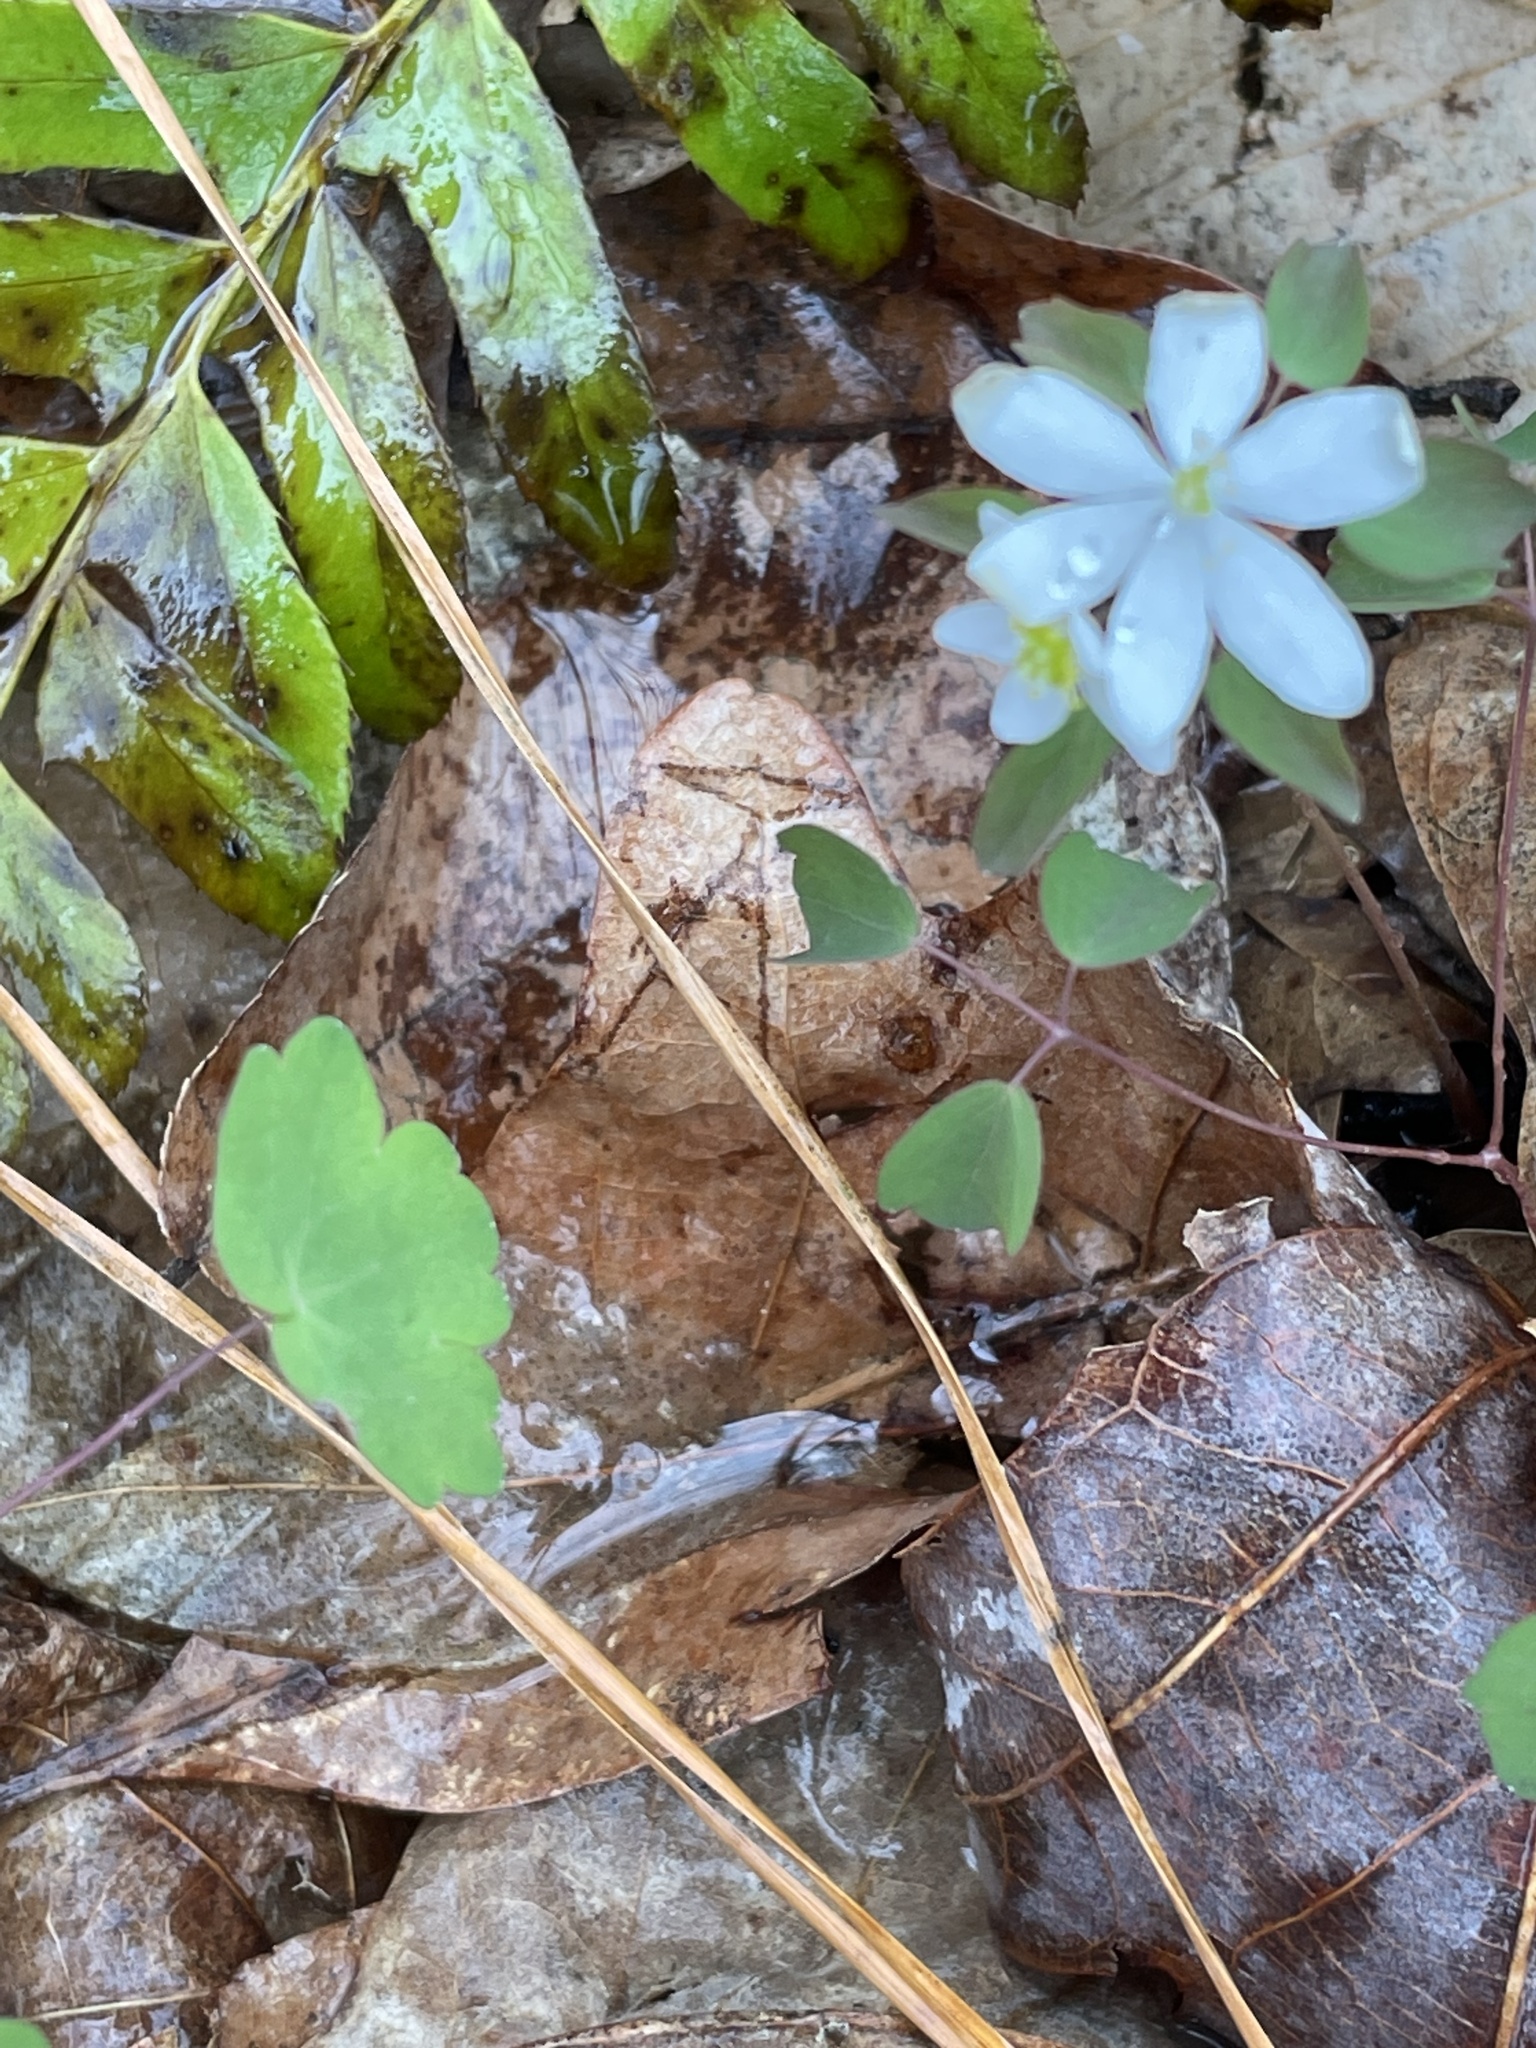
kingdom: Plantae
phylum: Tracheophyta
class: Magnoliopsida
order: Ranunculales
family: Ranunculaceae
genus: Thalictrum
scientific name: Thalictrum thalictroides
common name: Rue-anemone
